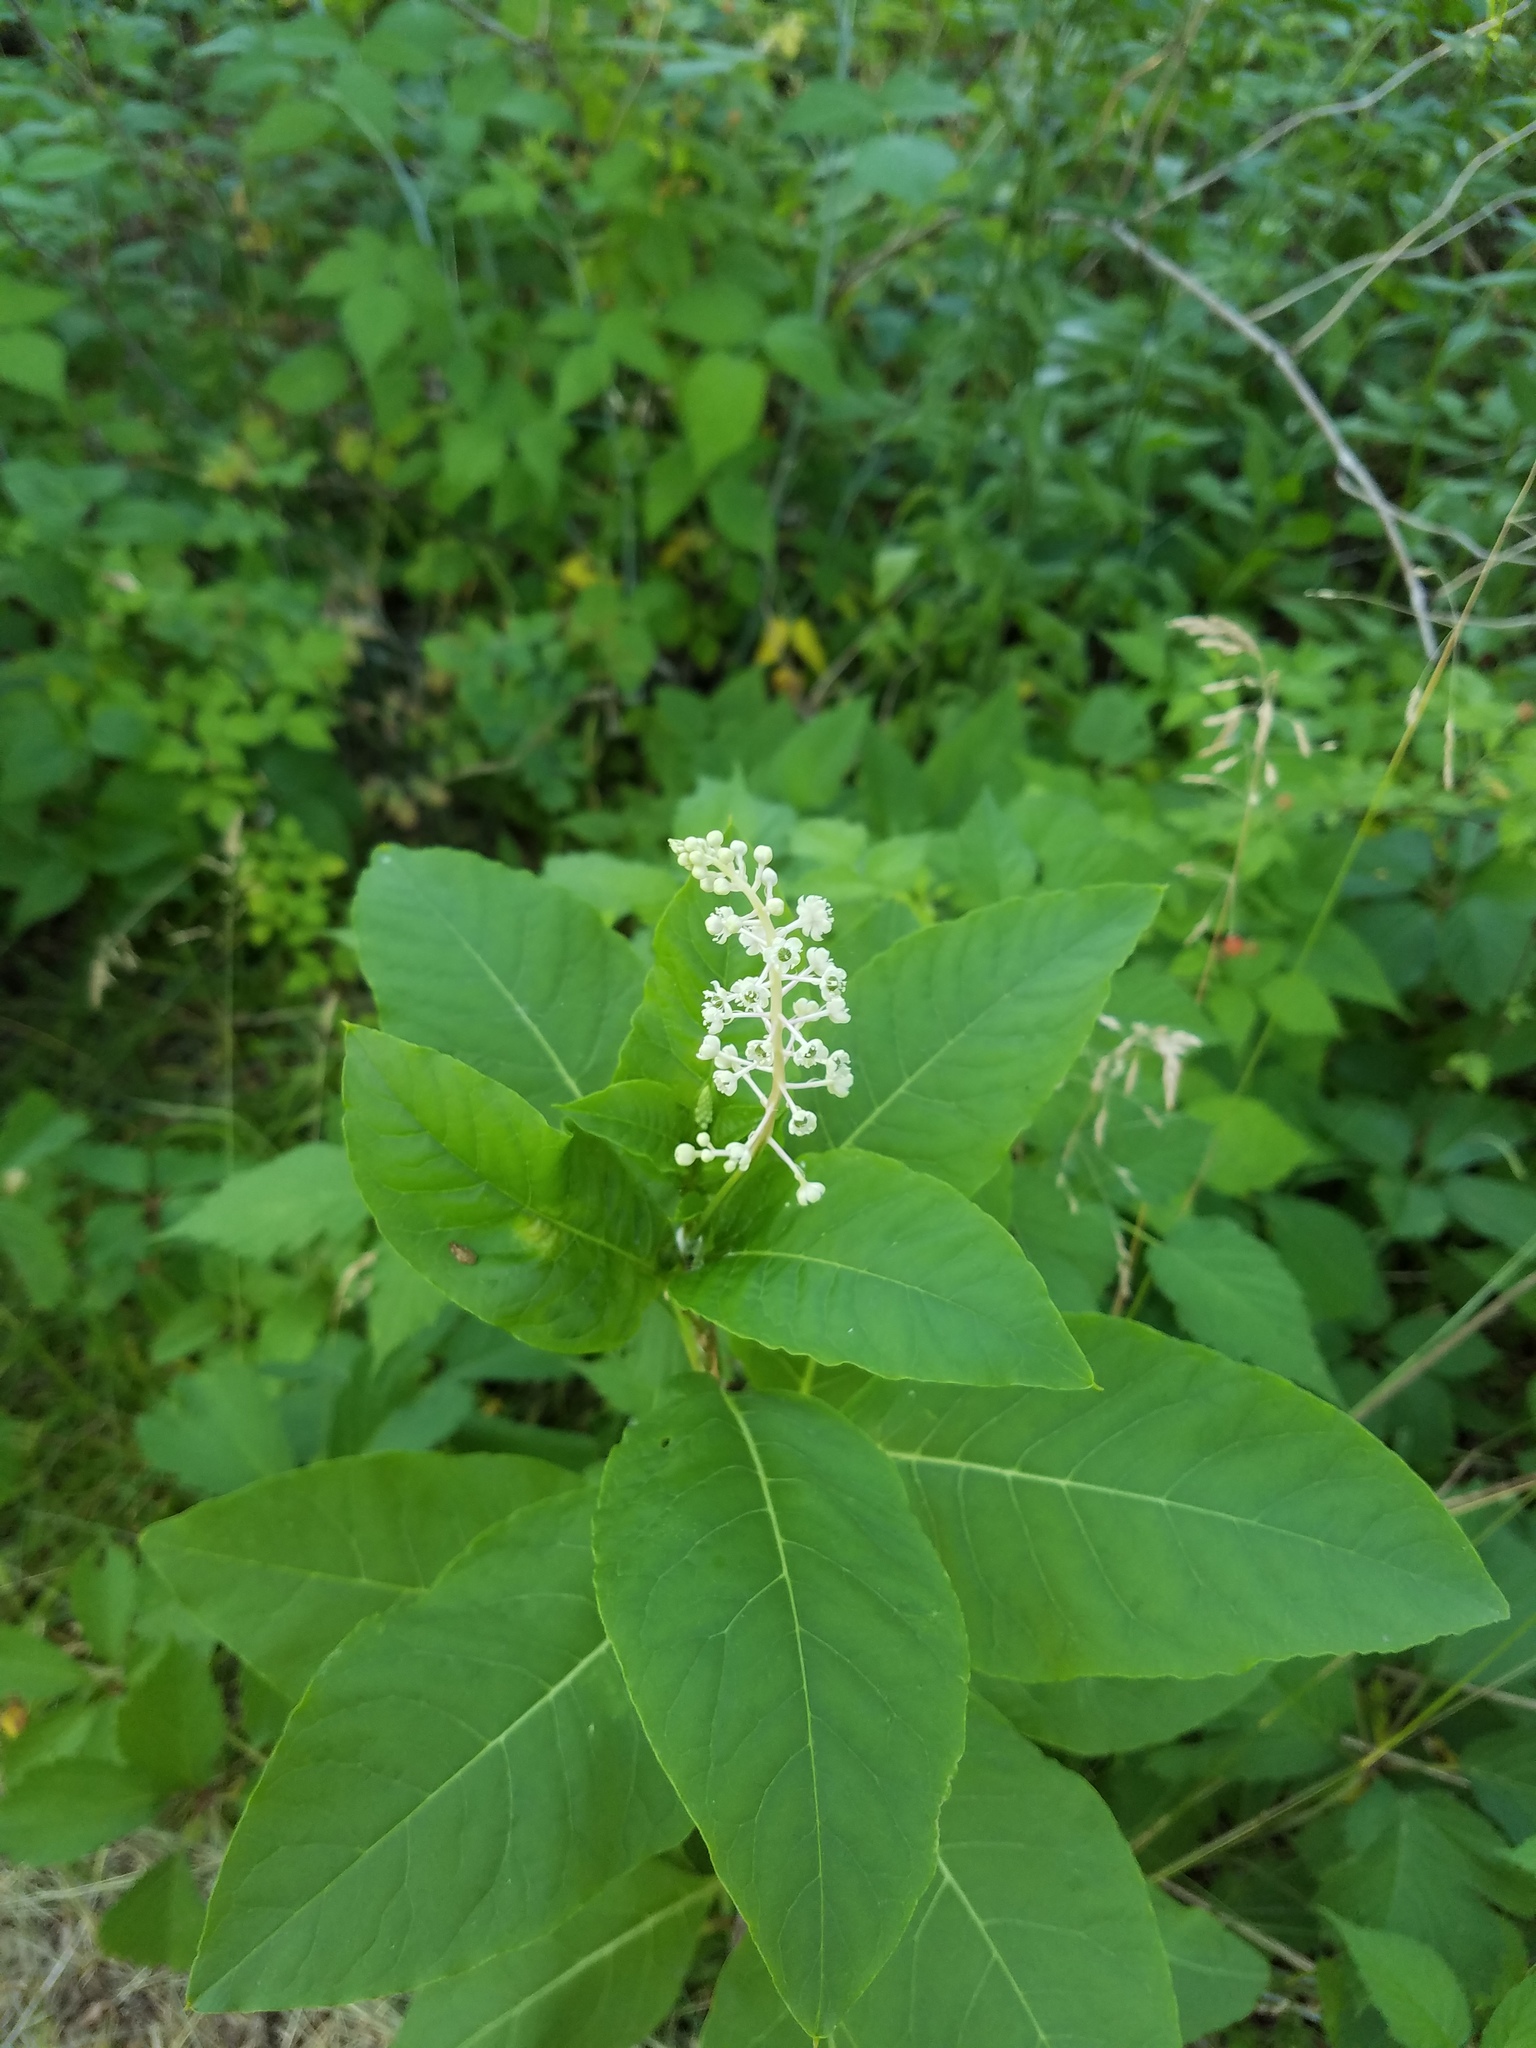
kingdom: Plantae
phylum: Tracheophyta
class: Magnoliopsida
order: Caryophyllales
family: Phytolaccaceae
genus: Phytolacca
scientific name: Phytolacca americana
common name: American pokeweed
